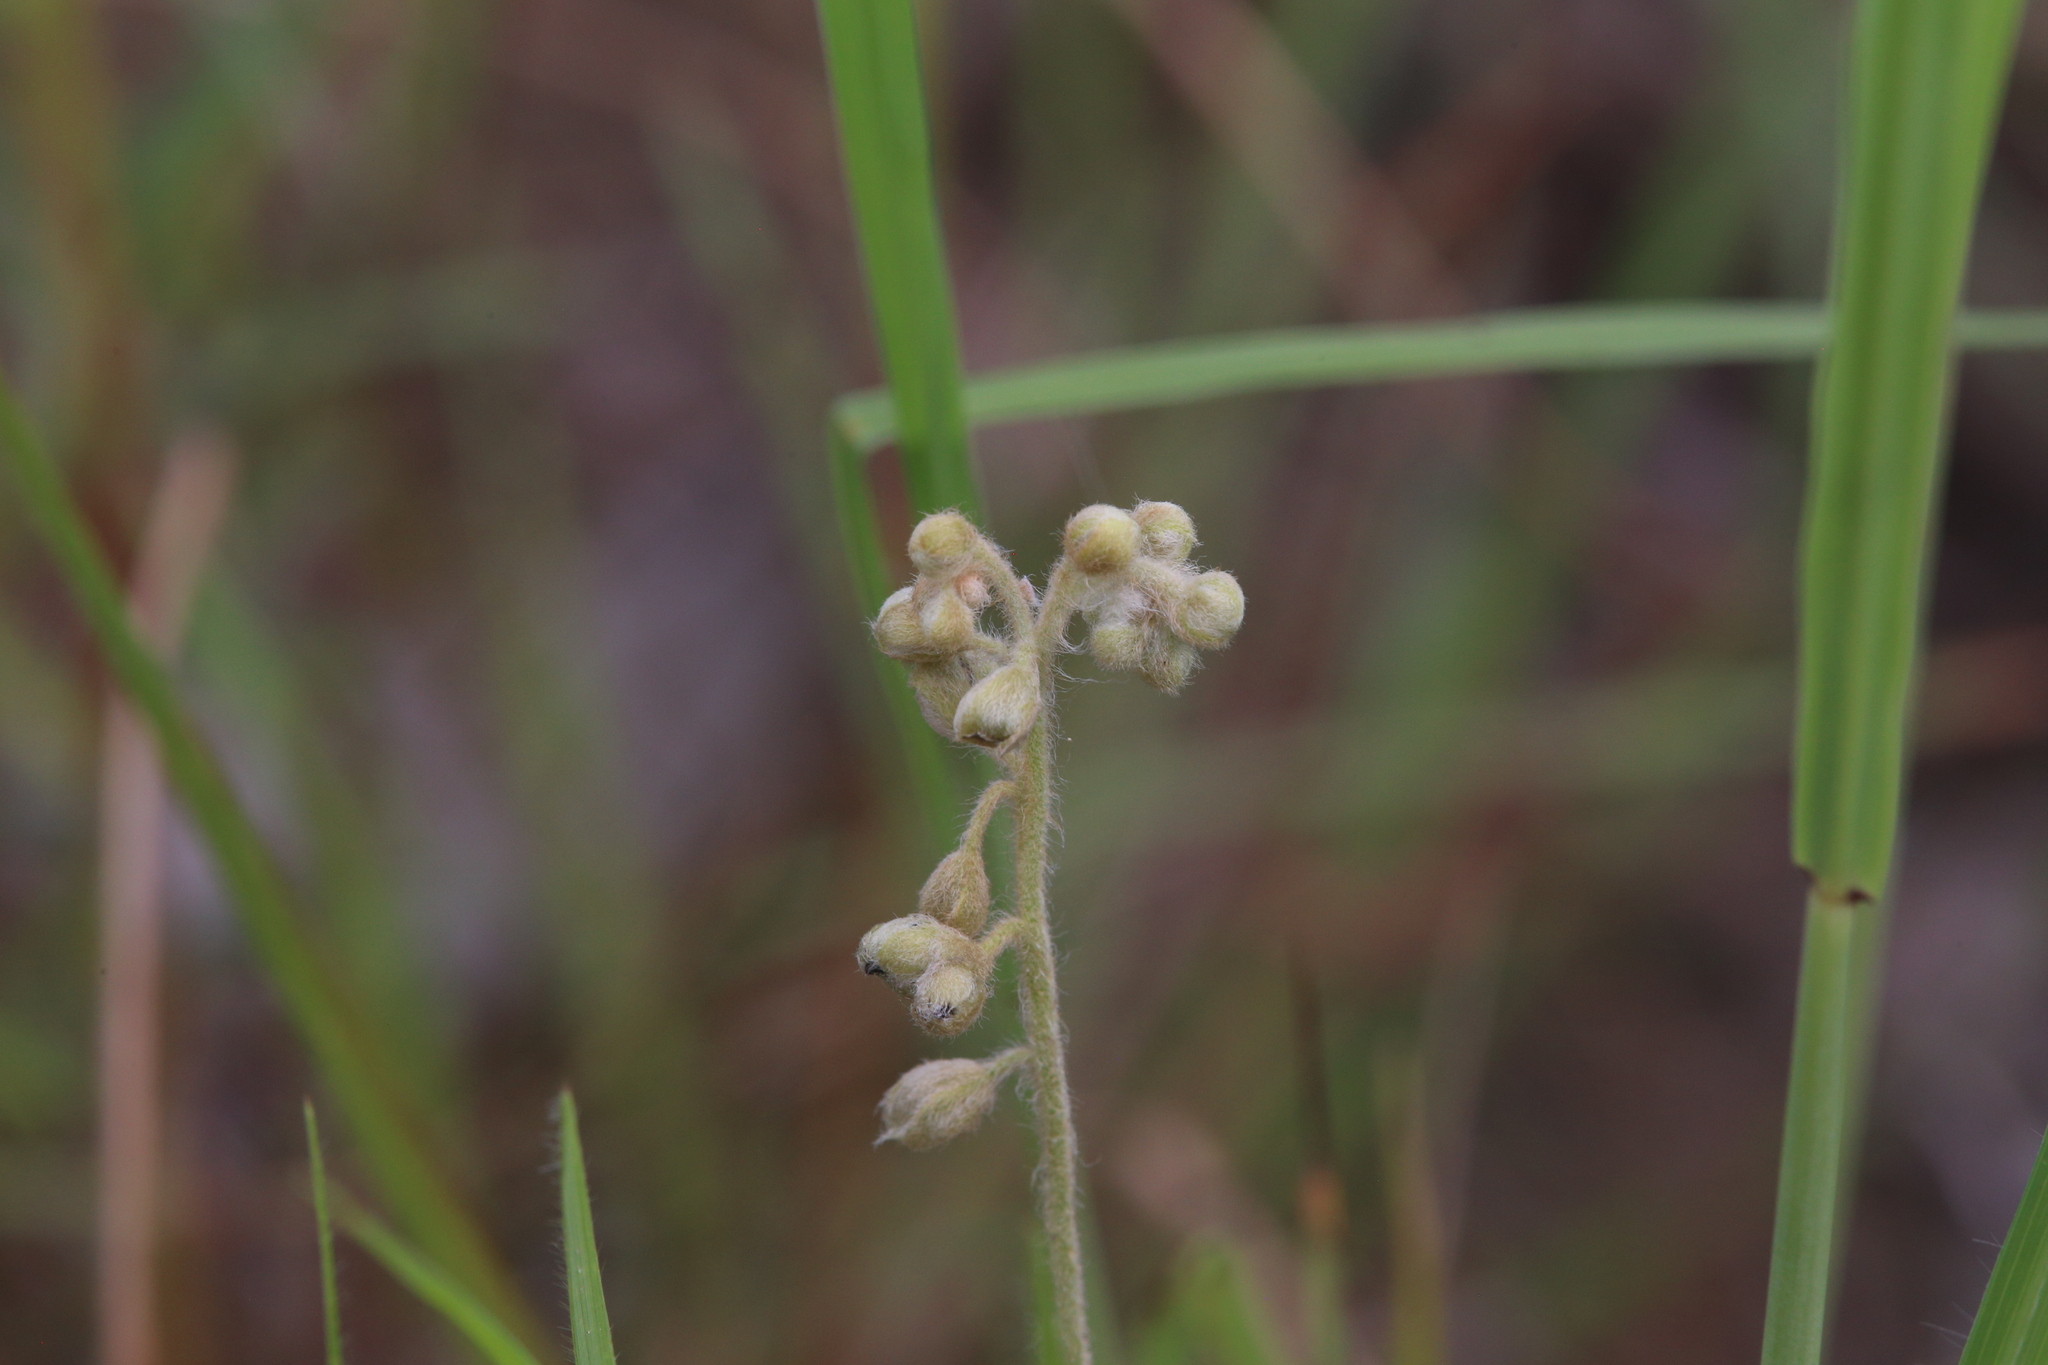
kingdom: Plantae
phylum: Tracheophyta
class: Magnoliopsida
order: Caryophyllales
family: Droseraceae
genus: Drosera
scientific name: Drosera brevicornis
